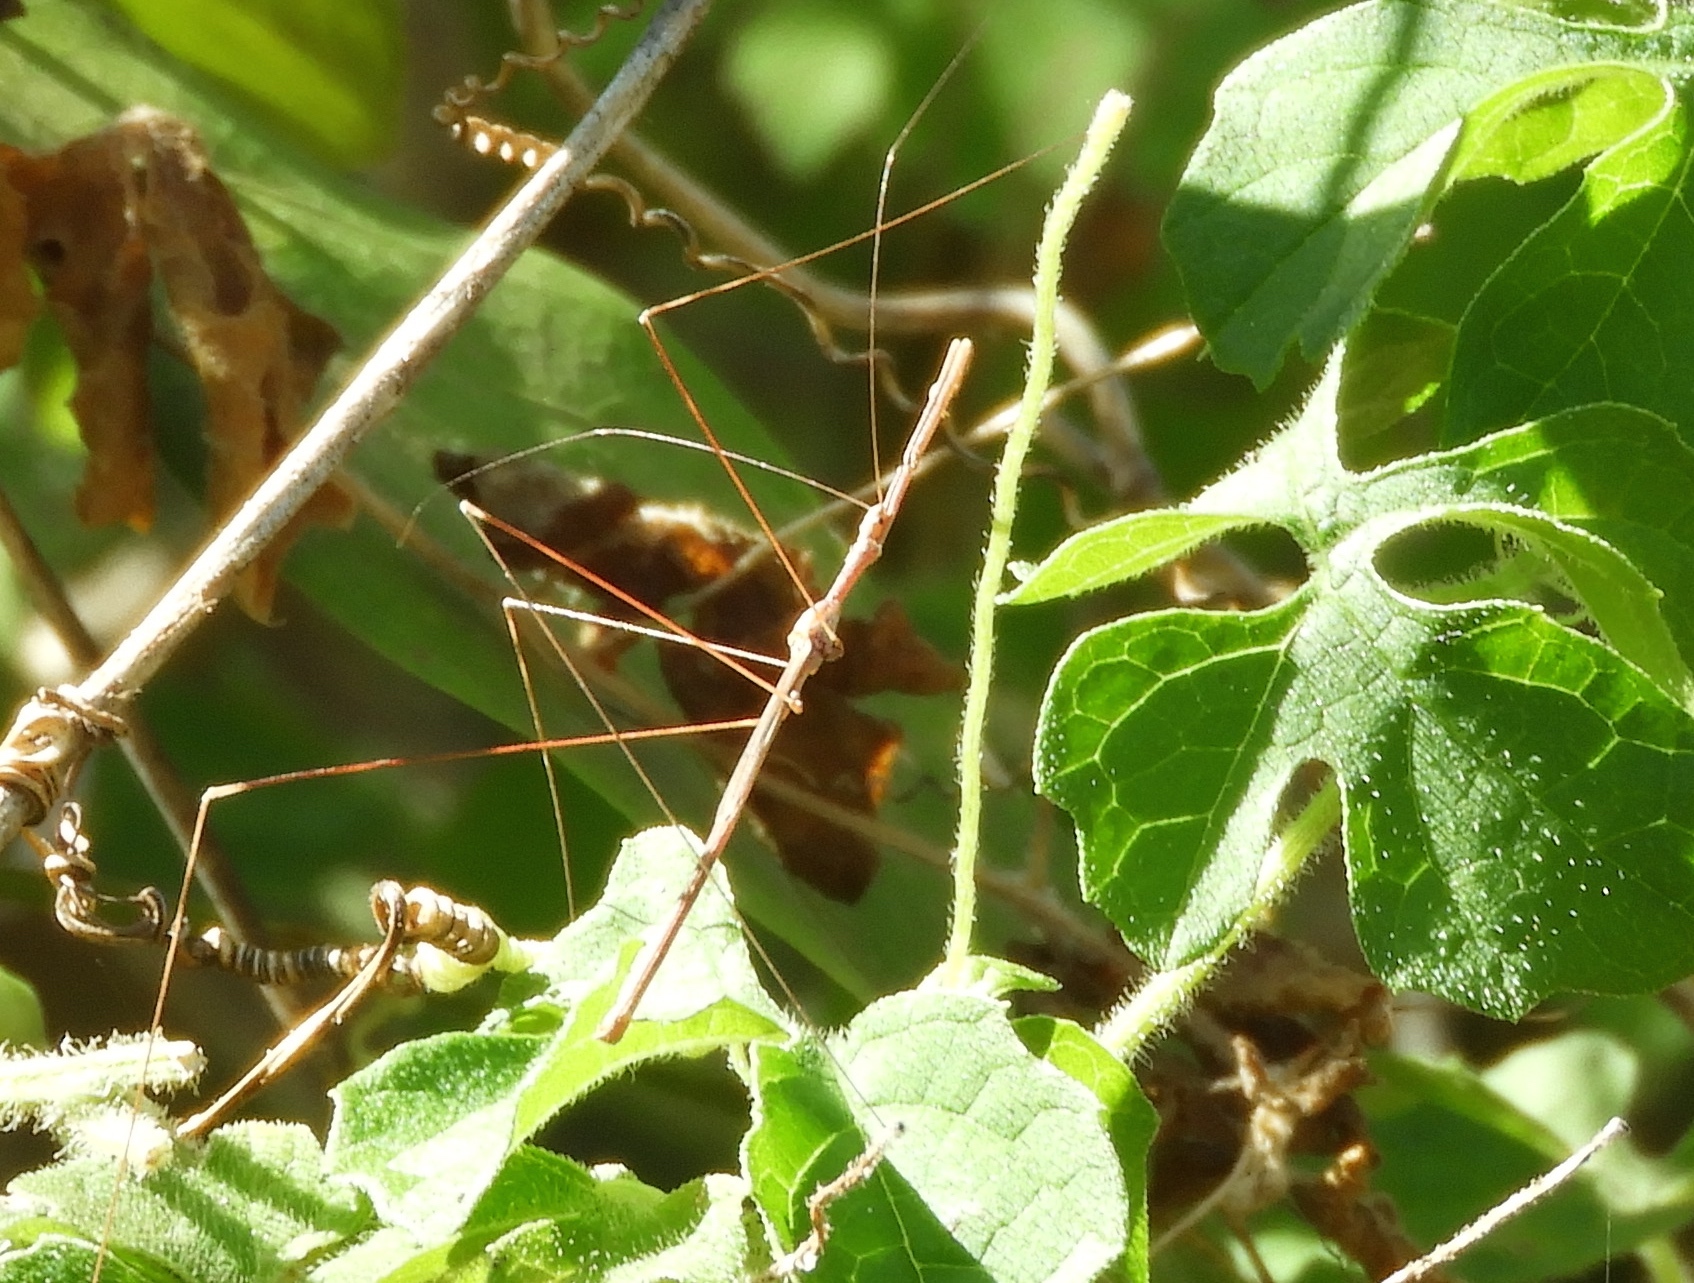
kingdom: Animalia
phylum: Arthropoda
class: Insecta
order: Hemiptera
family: Reduviidae
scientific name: Reduviidae
